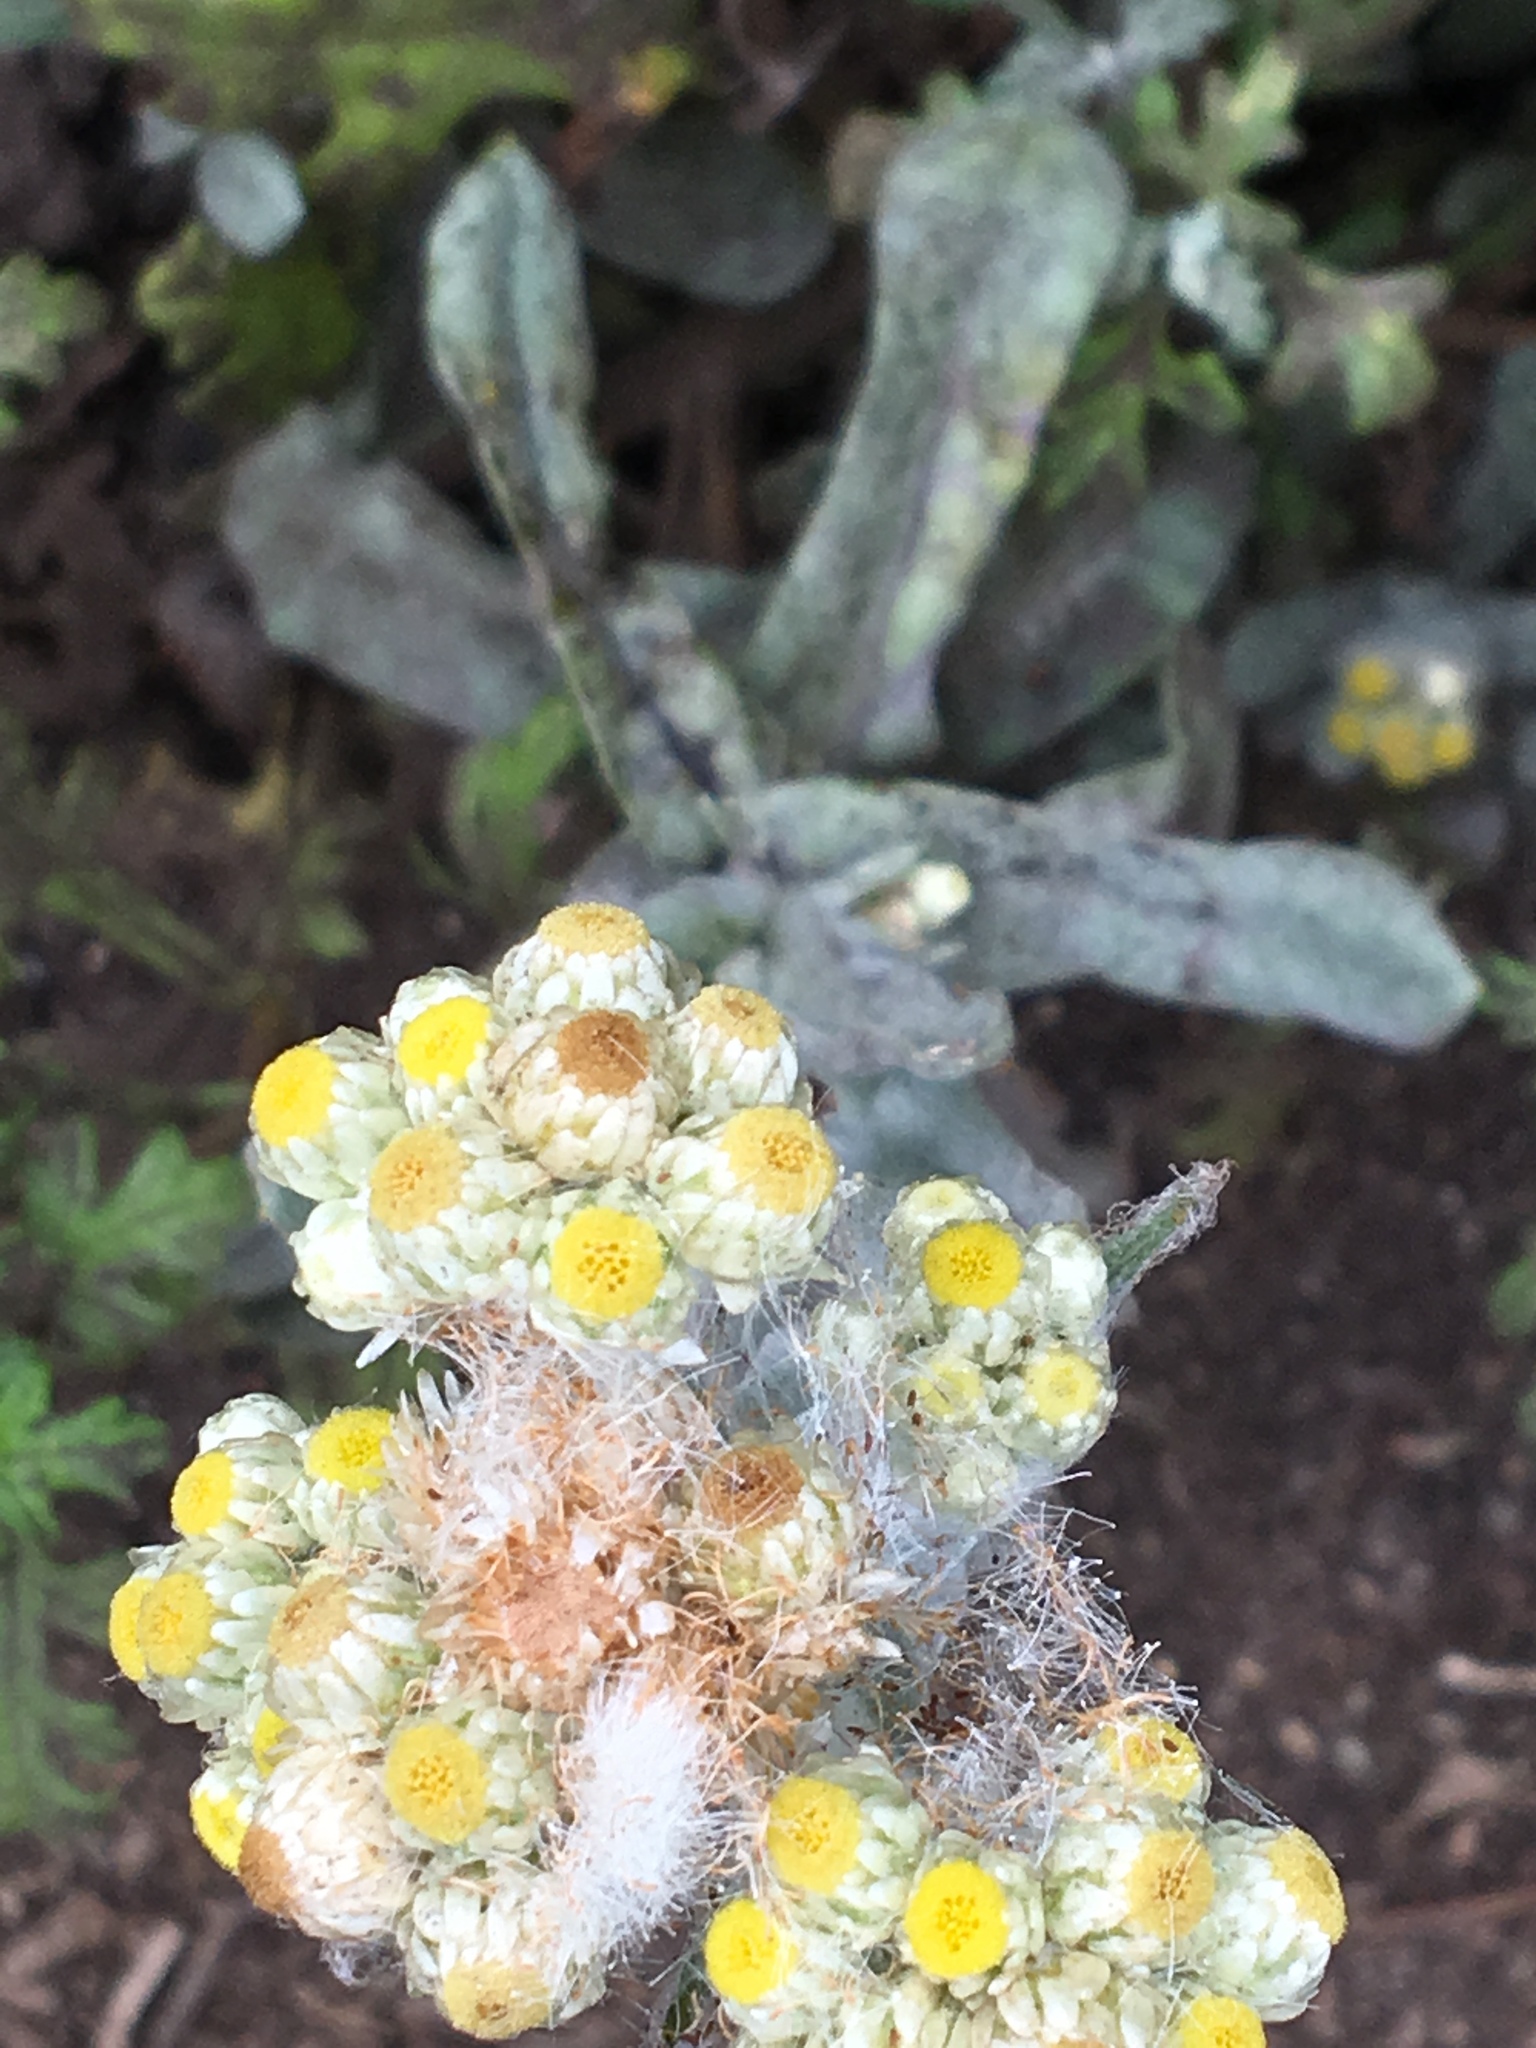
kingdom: Plantae
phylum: Tracheophyta
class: Magnoliopsida
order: Asterales
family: Asteraceae
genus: Pseudognaphalium
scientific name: Pseudognaphalium stramineum
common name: Cotton-batting-plant
